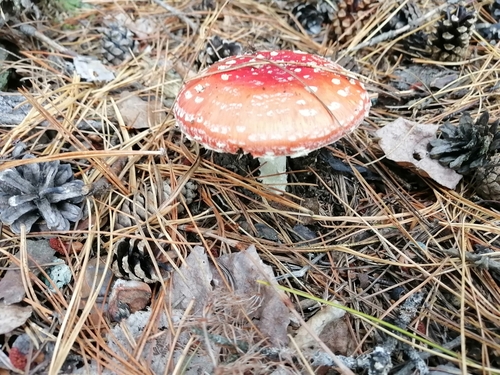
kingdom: Fungi
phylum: Basidiomycota
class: Agaricomycetes
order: Agaricales
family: Amanitaceae
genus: Amanita
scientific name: Amanita muscaria
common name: Fly agaric
